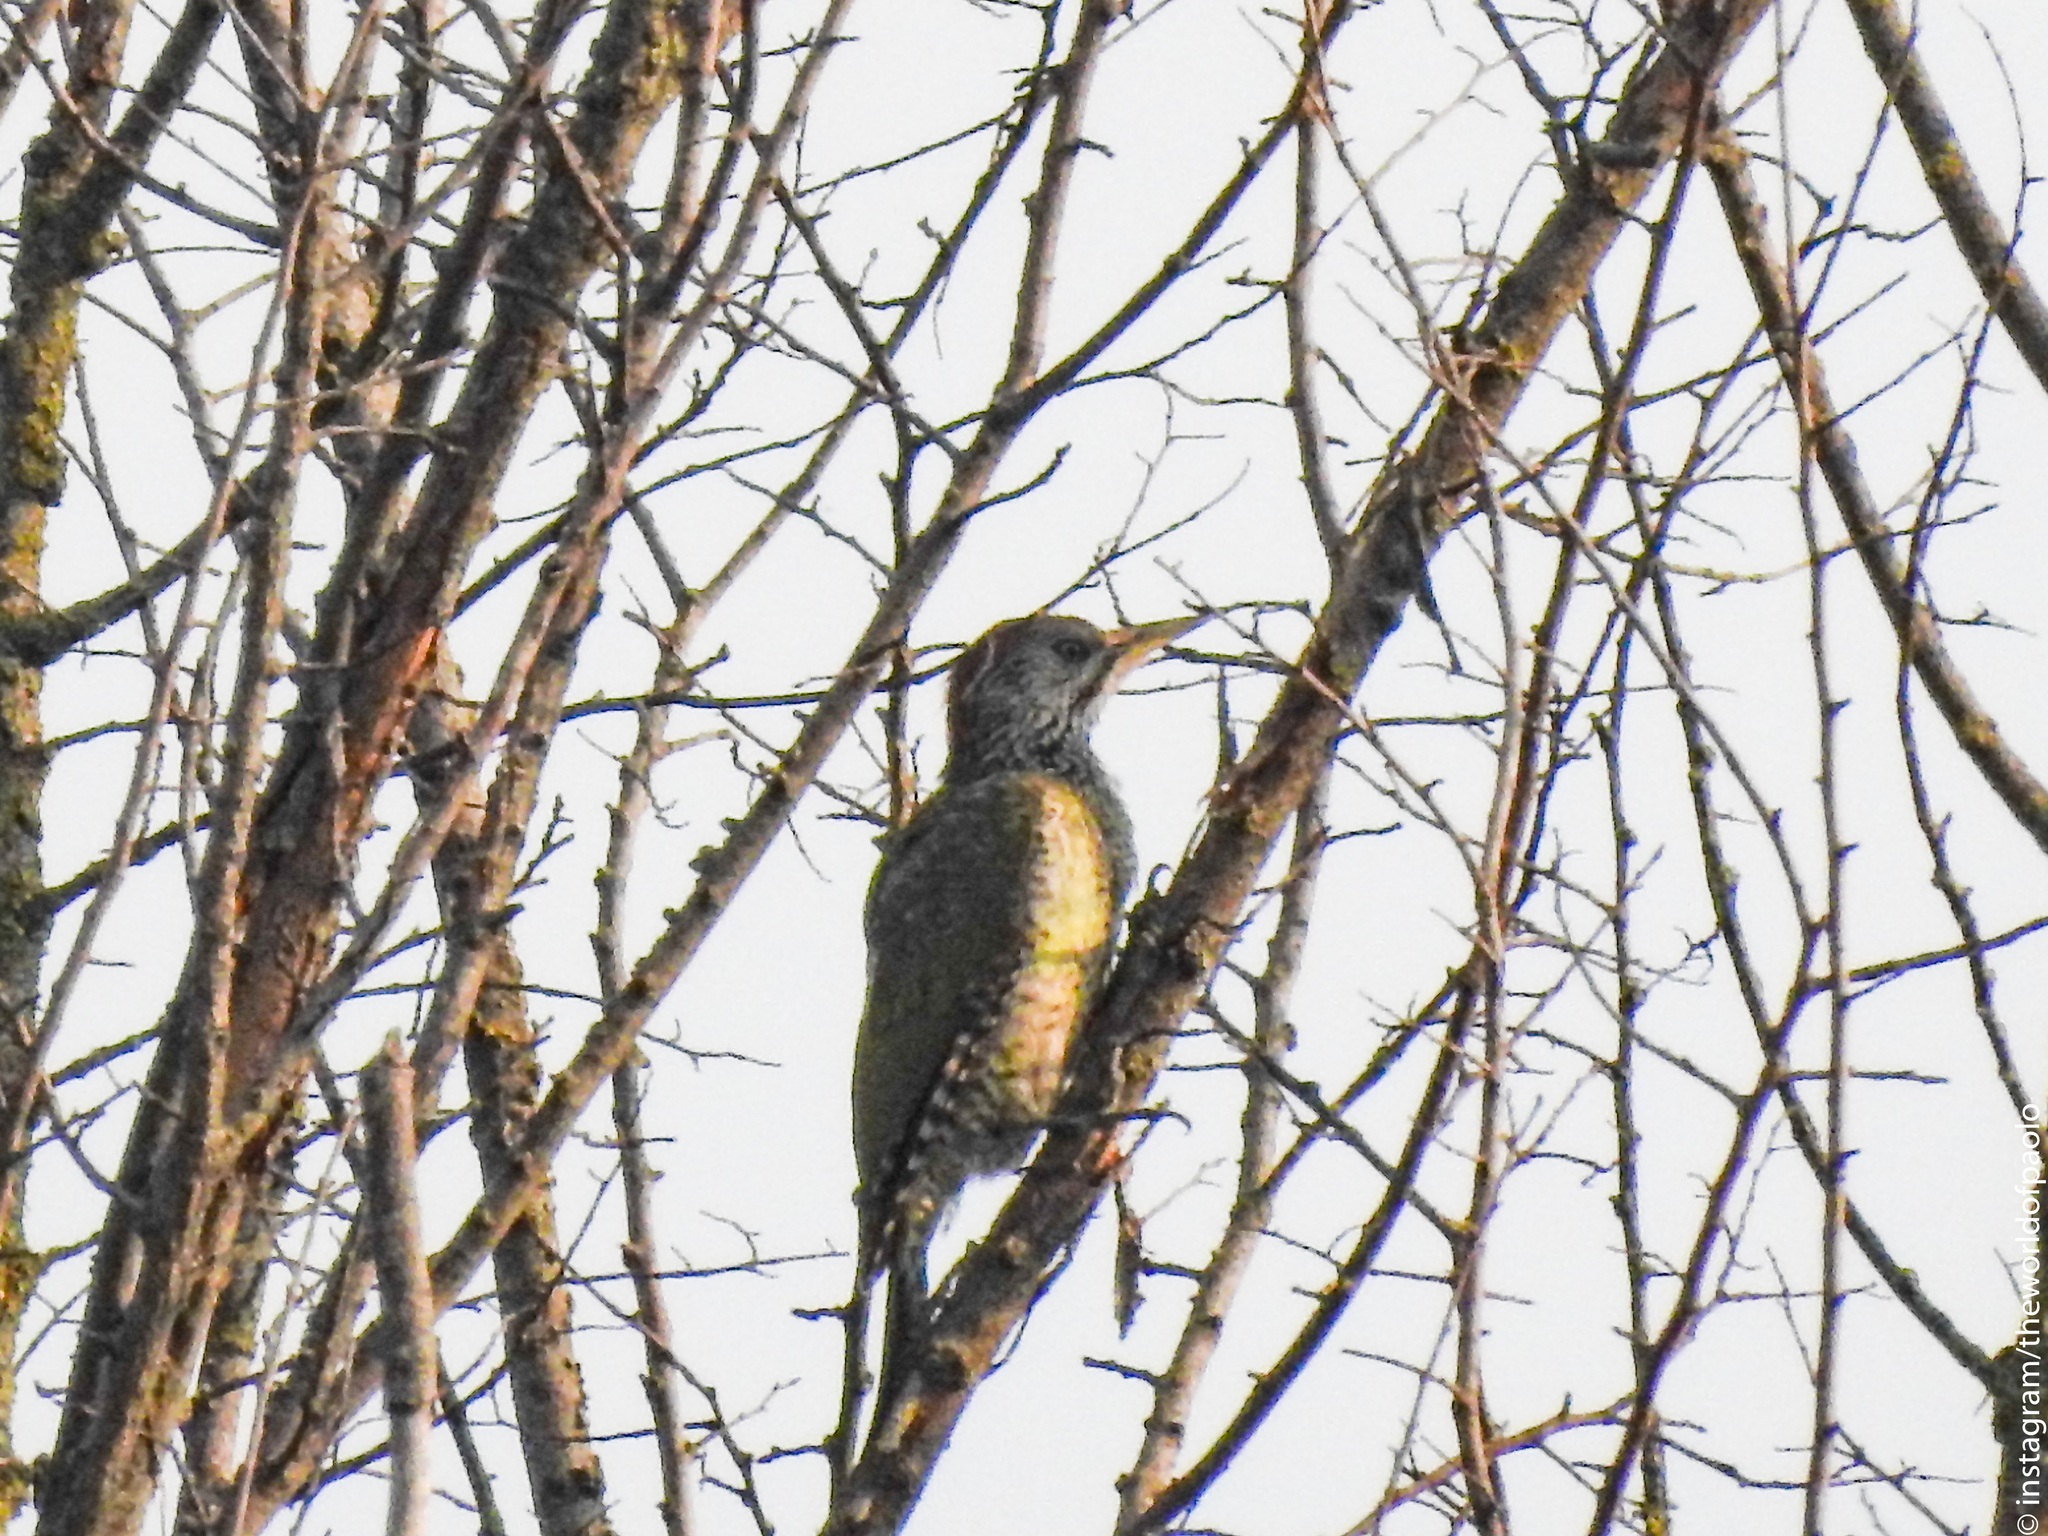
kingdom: Animalia
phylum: Chordata
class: Aves
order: Piciformes
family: Picidae
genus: Picus
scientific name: Picus viridis
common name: European green woodpecker
